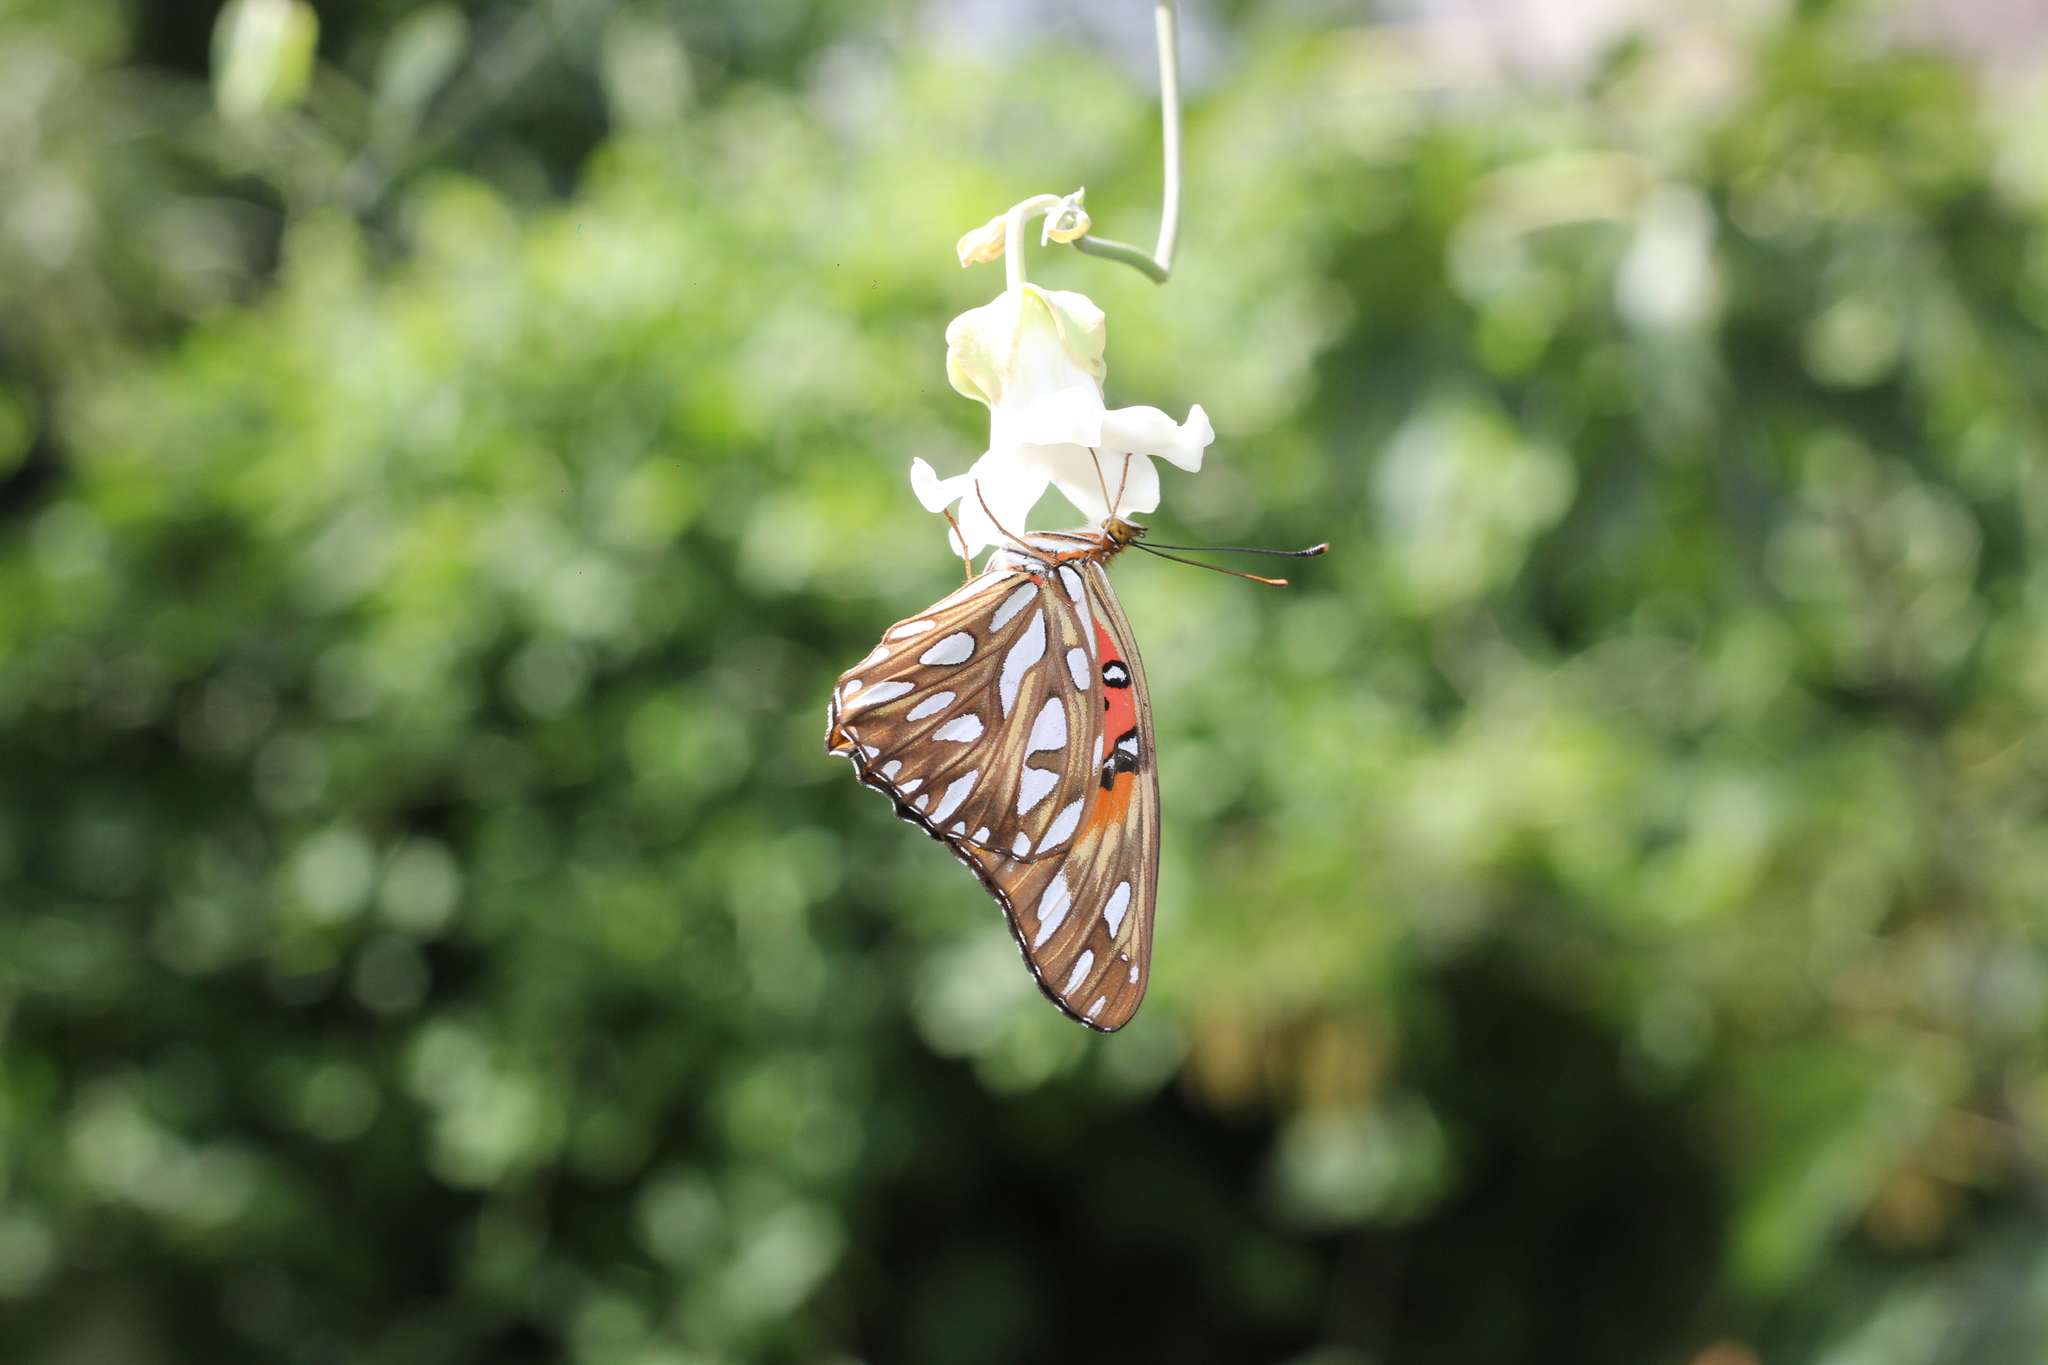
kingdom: Animalia
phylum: Arthropoda
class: Insecta
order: Lepidoptera
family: Nymphalidae
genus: Dione
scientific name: Dione vanillae
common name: Gulf fritillary
